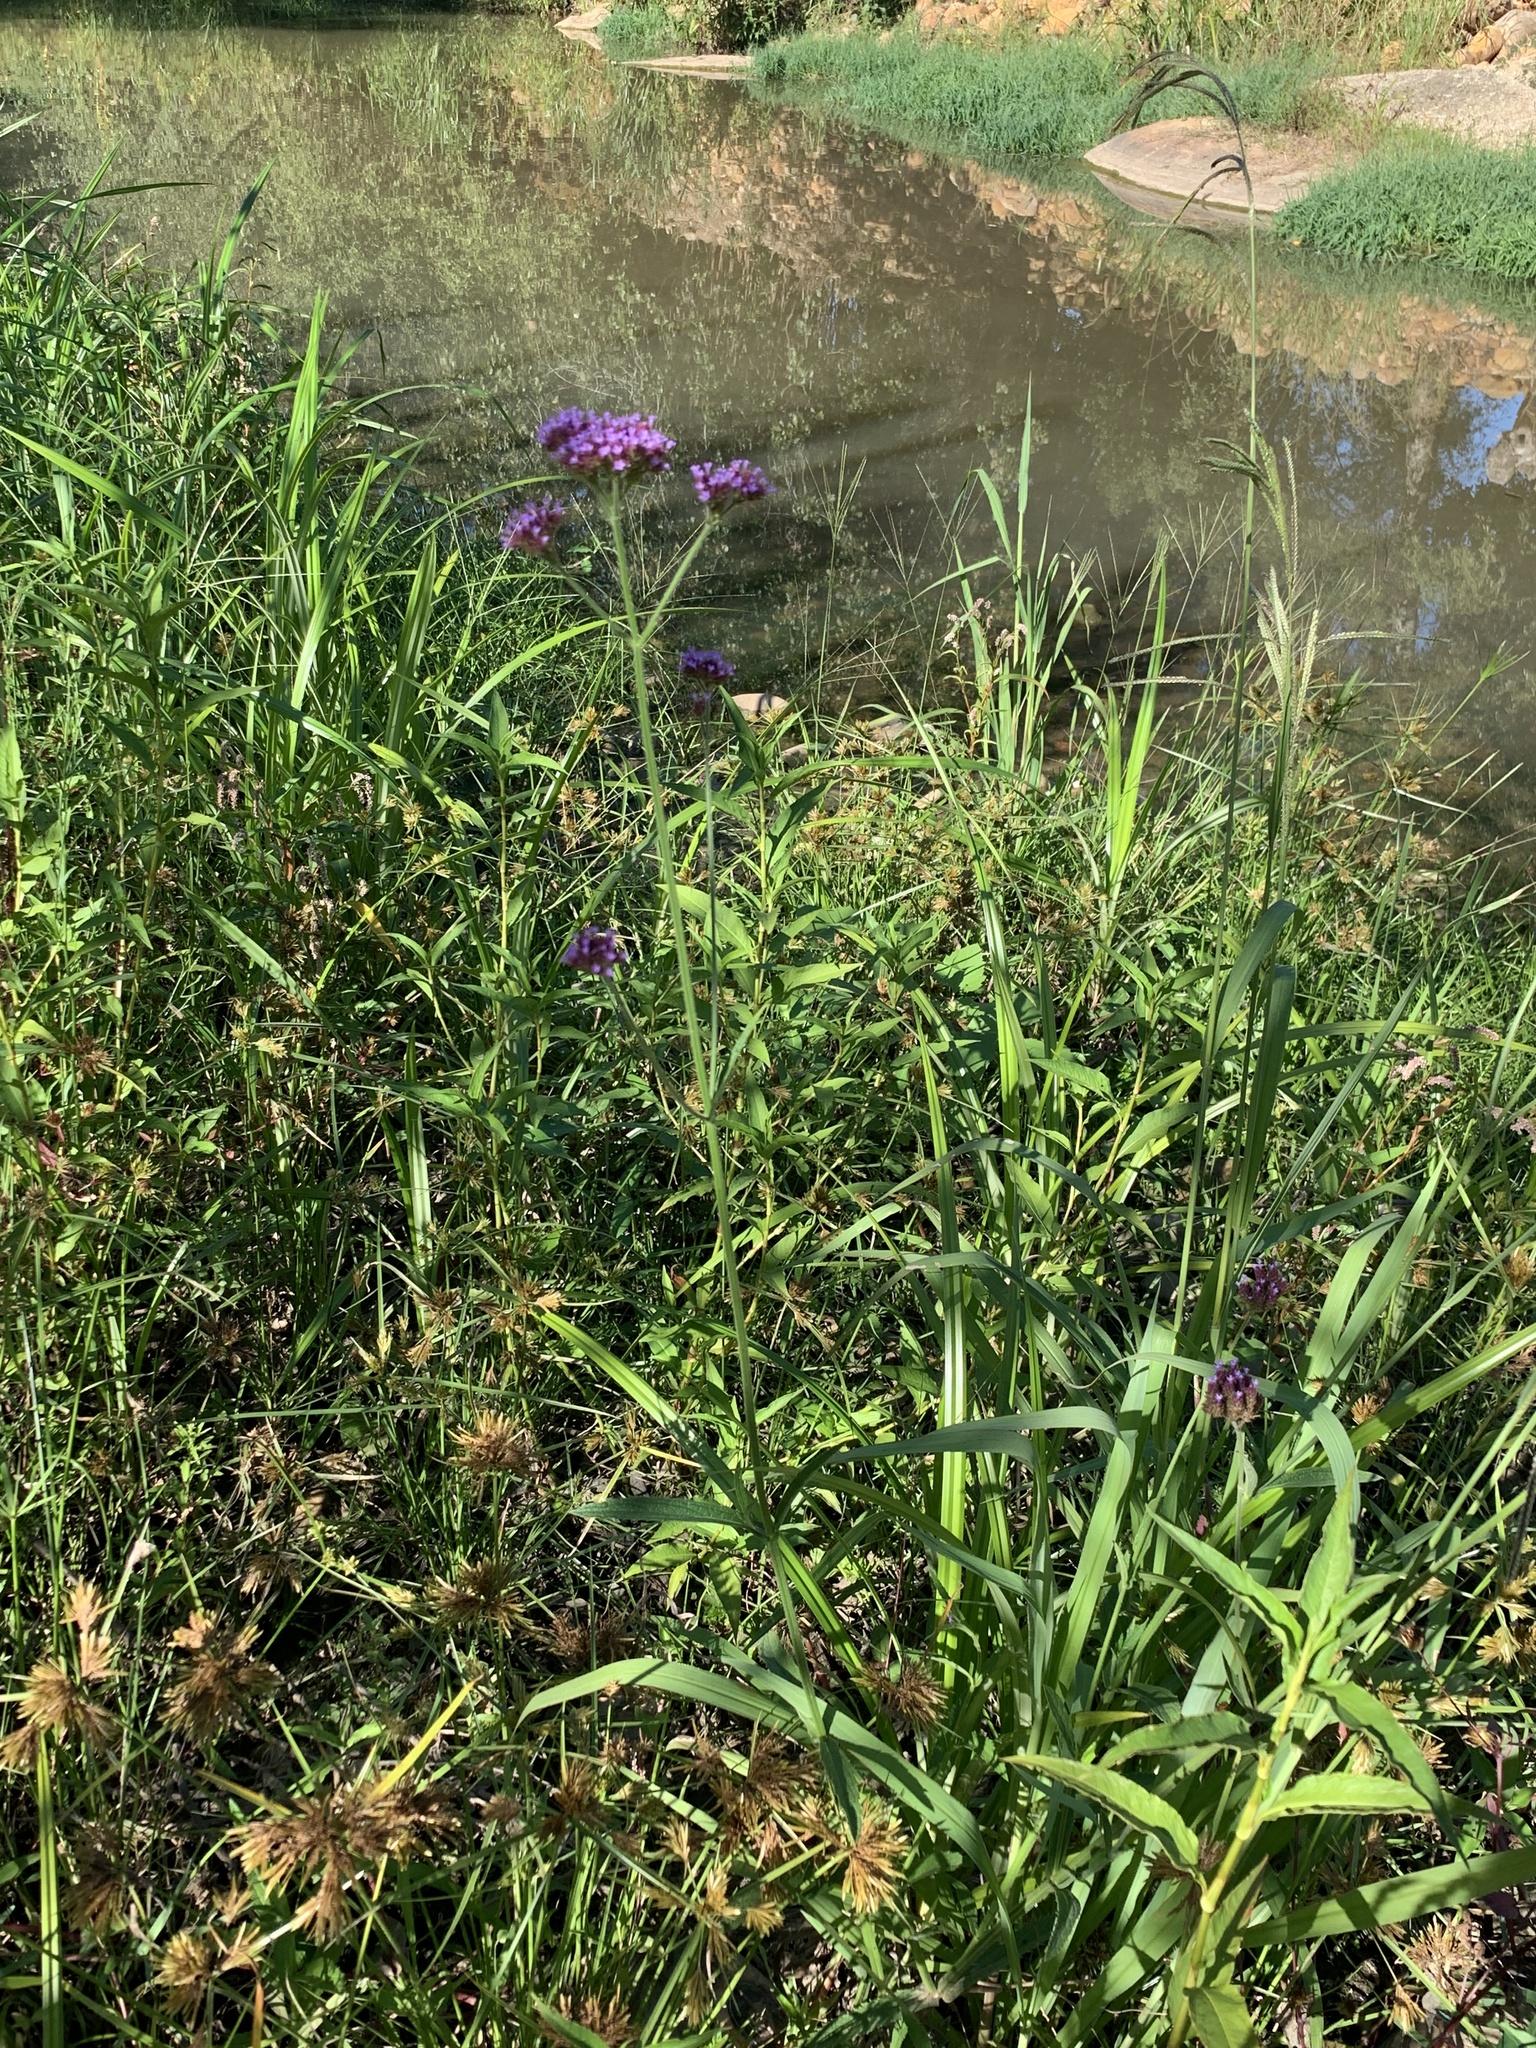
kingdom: Plantae
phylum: Tracheophyta
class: Magnoliopsida
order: Lamiales
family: Verbenaceae
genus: Verbena
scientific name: Verbena bonariensis
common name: Purpletop vervain
